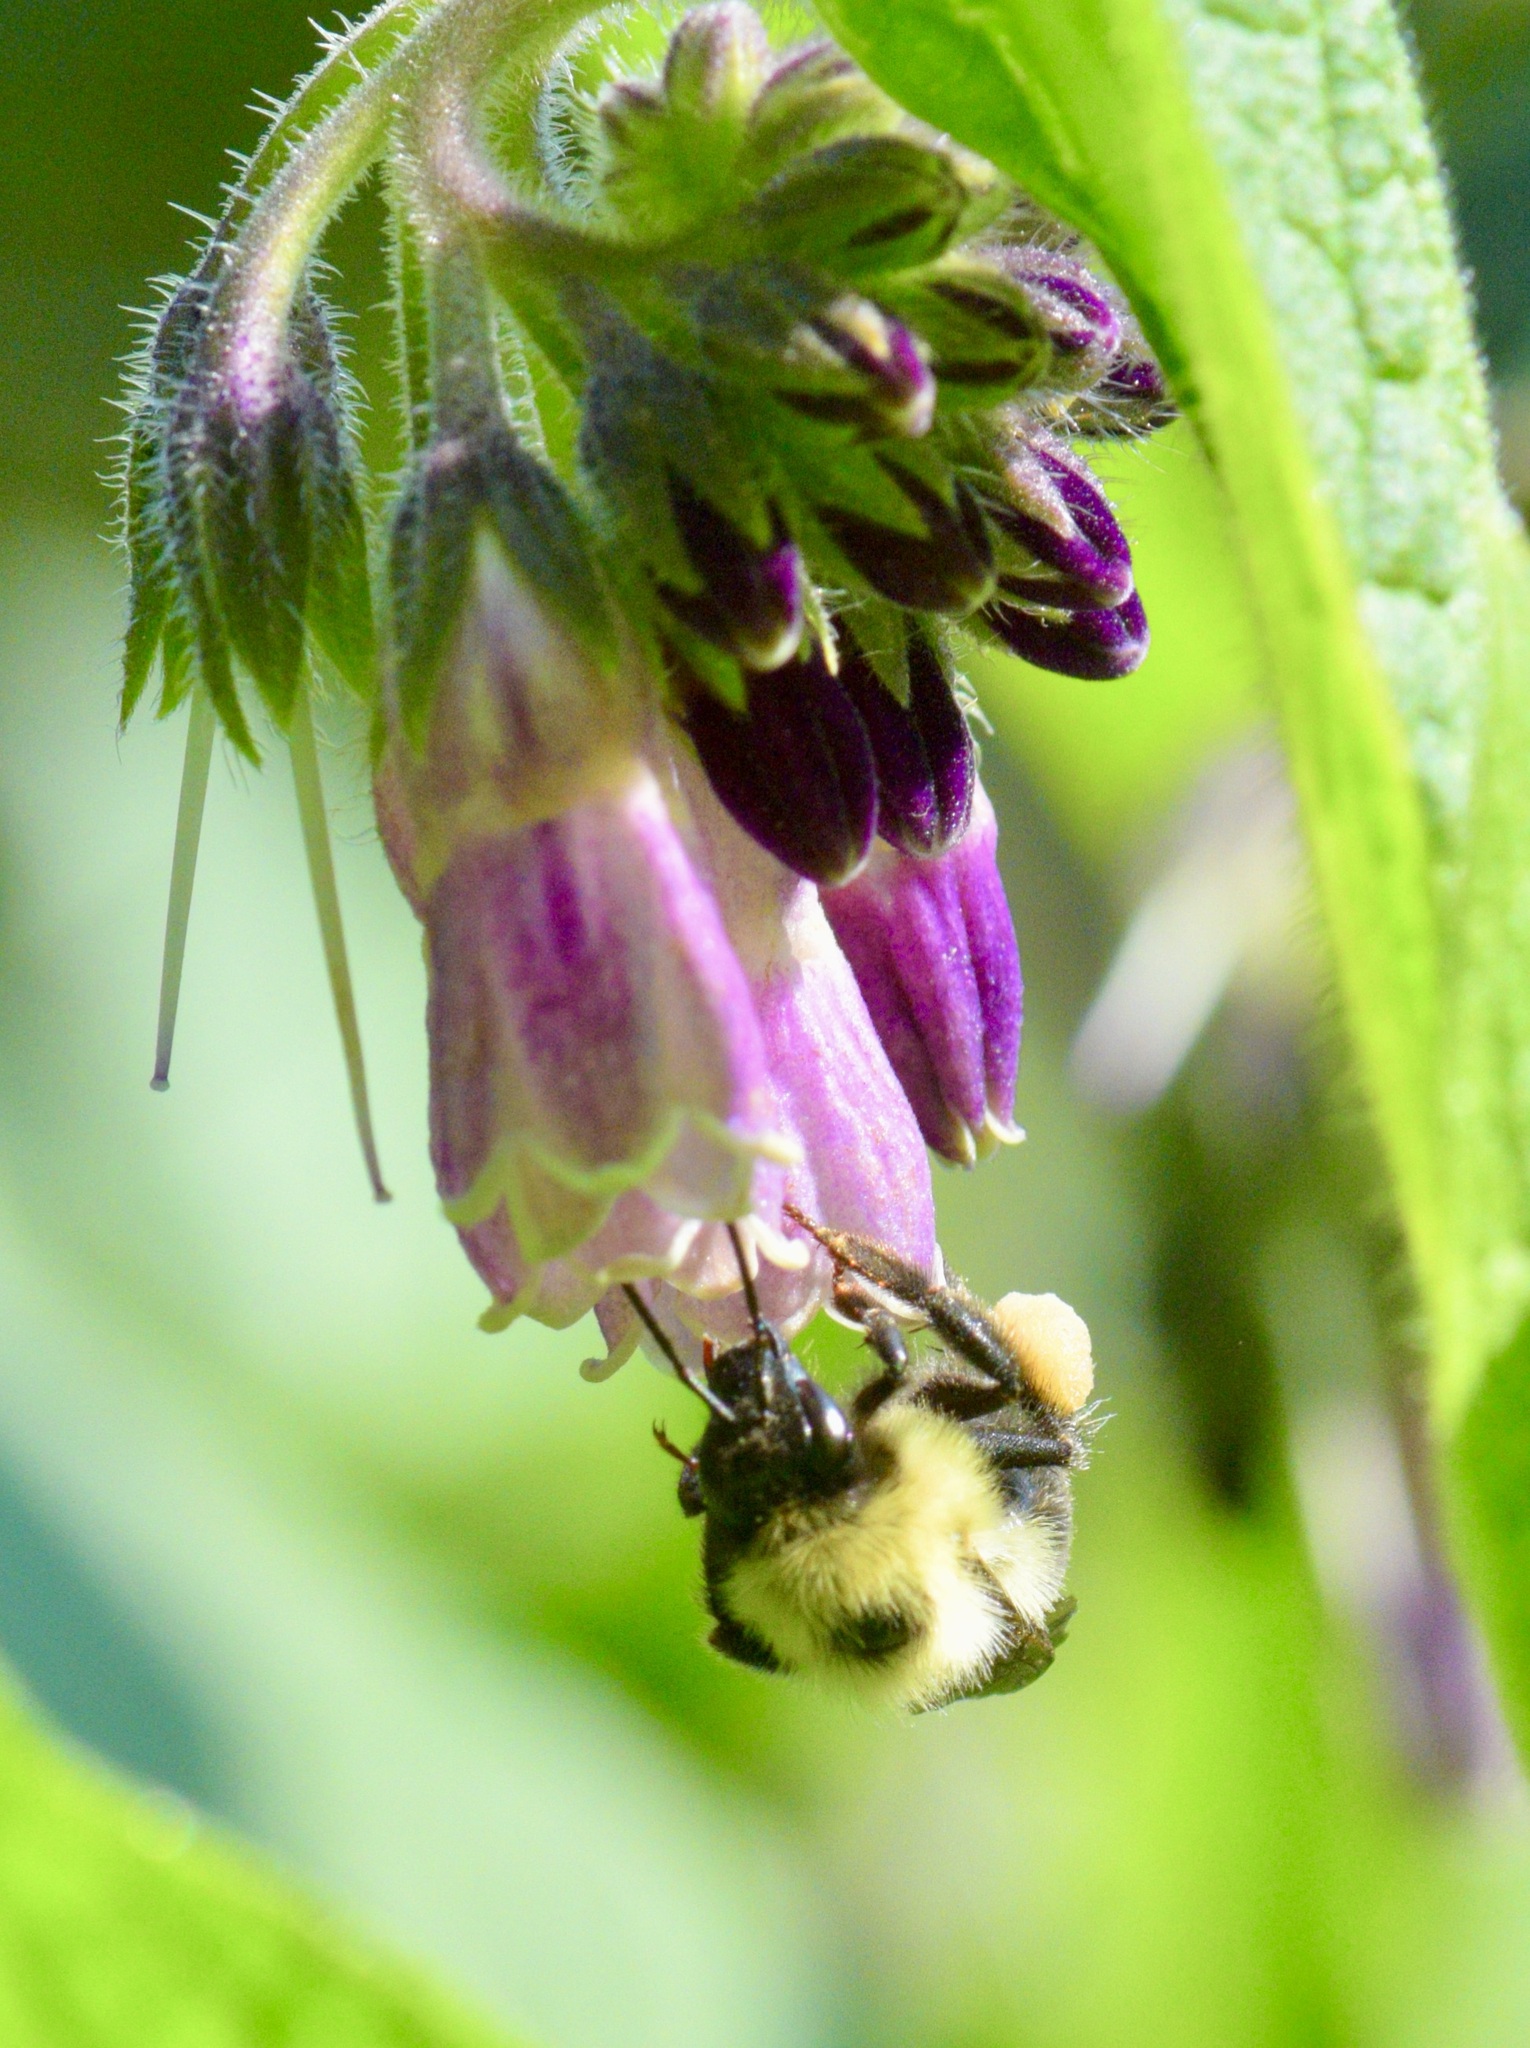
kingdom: Animalia
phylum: Arthropoda
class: Insecta
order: Hymenoptera
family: Apidae
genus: Bombus
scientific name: Bombus bimaculatus
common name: Two-spotted bumble bee
